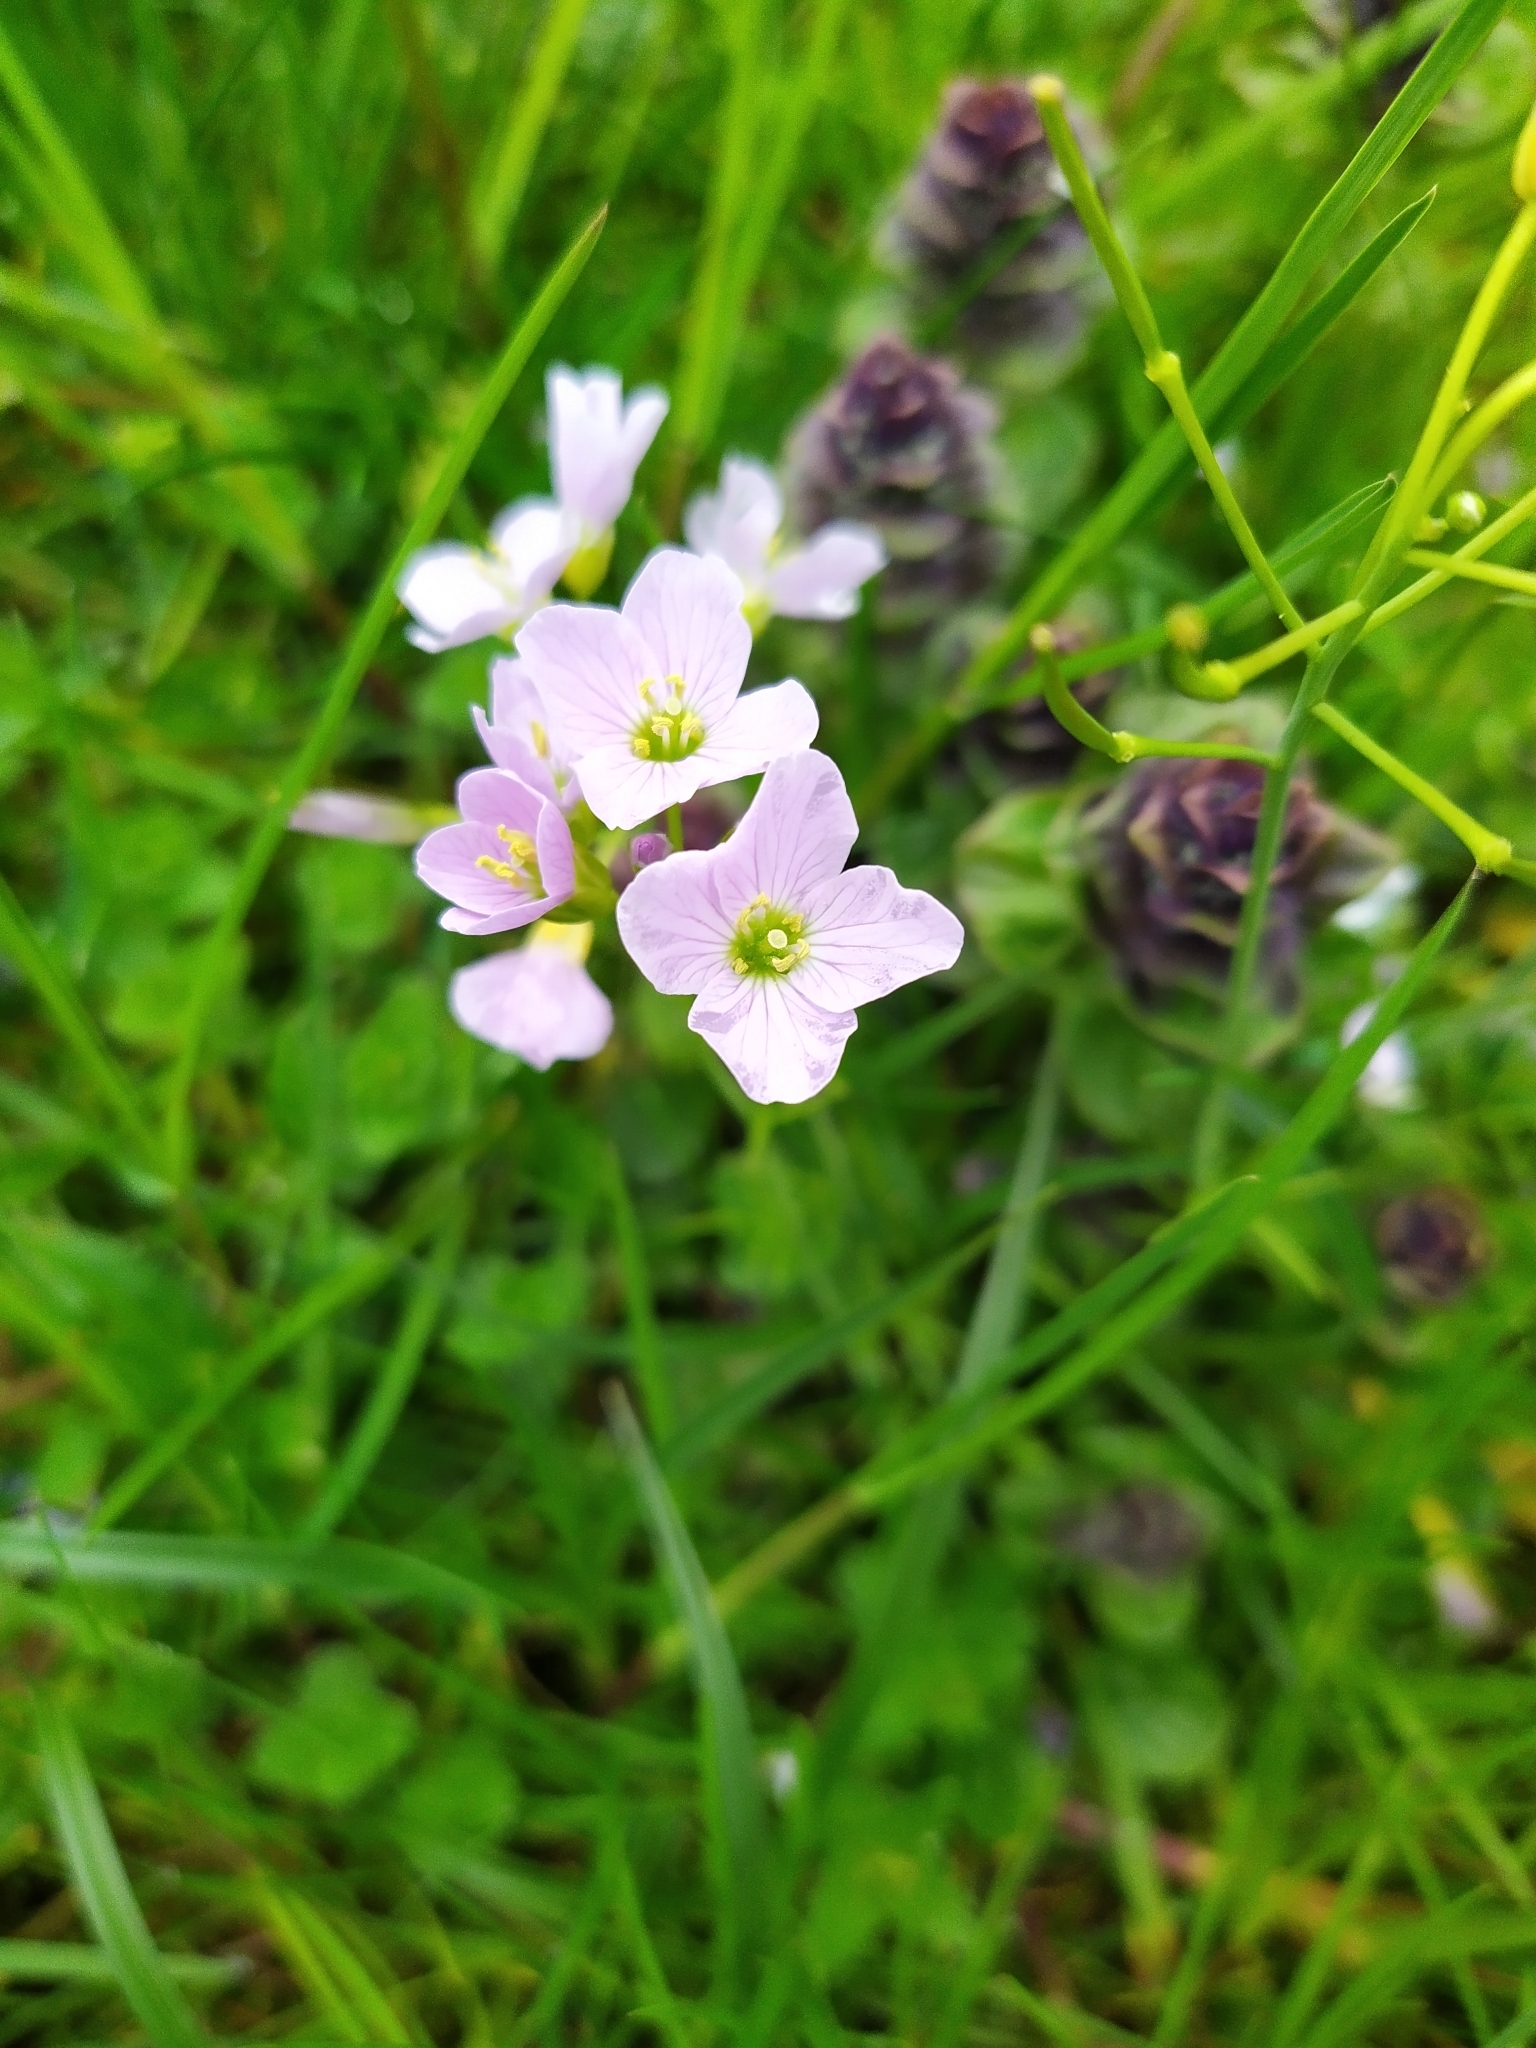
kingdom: Plantae
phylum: Tracheophyta
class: Magnoliopsida
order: Brassicales
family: Brassicaceae
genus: Cardamine
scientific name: Cardamine pratensis
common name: Cuckoo flower
